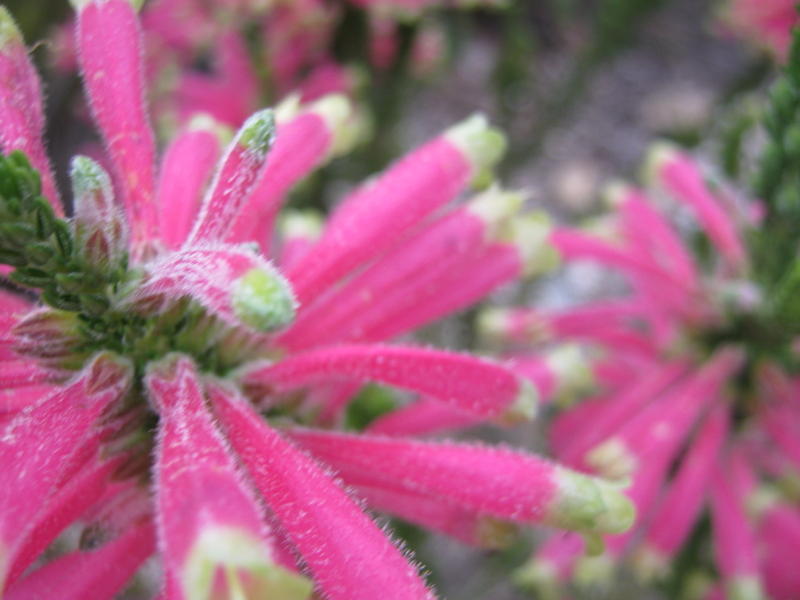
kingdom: Plantae
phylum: Tracheophyta
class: Magnoliopsida
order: Ericales
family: Ericaceae
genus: Erica
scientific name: Erica densifolia
